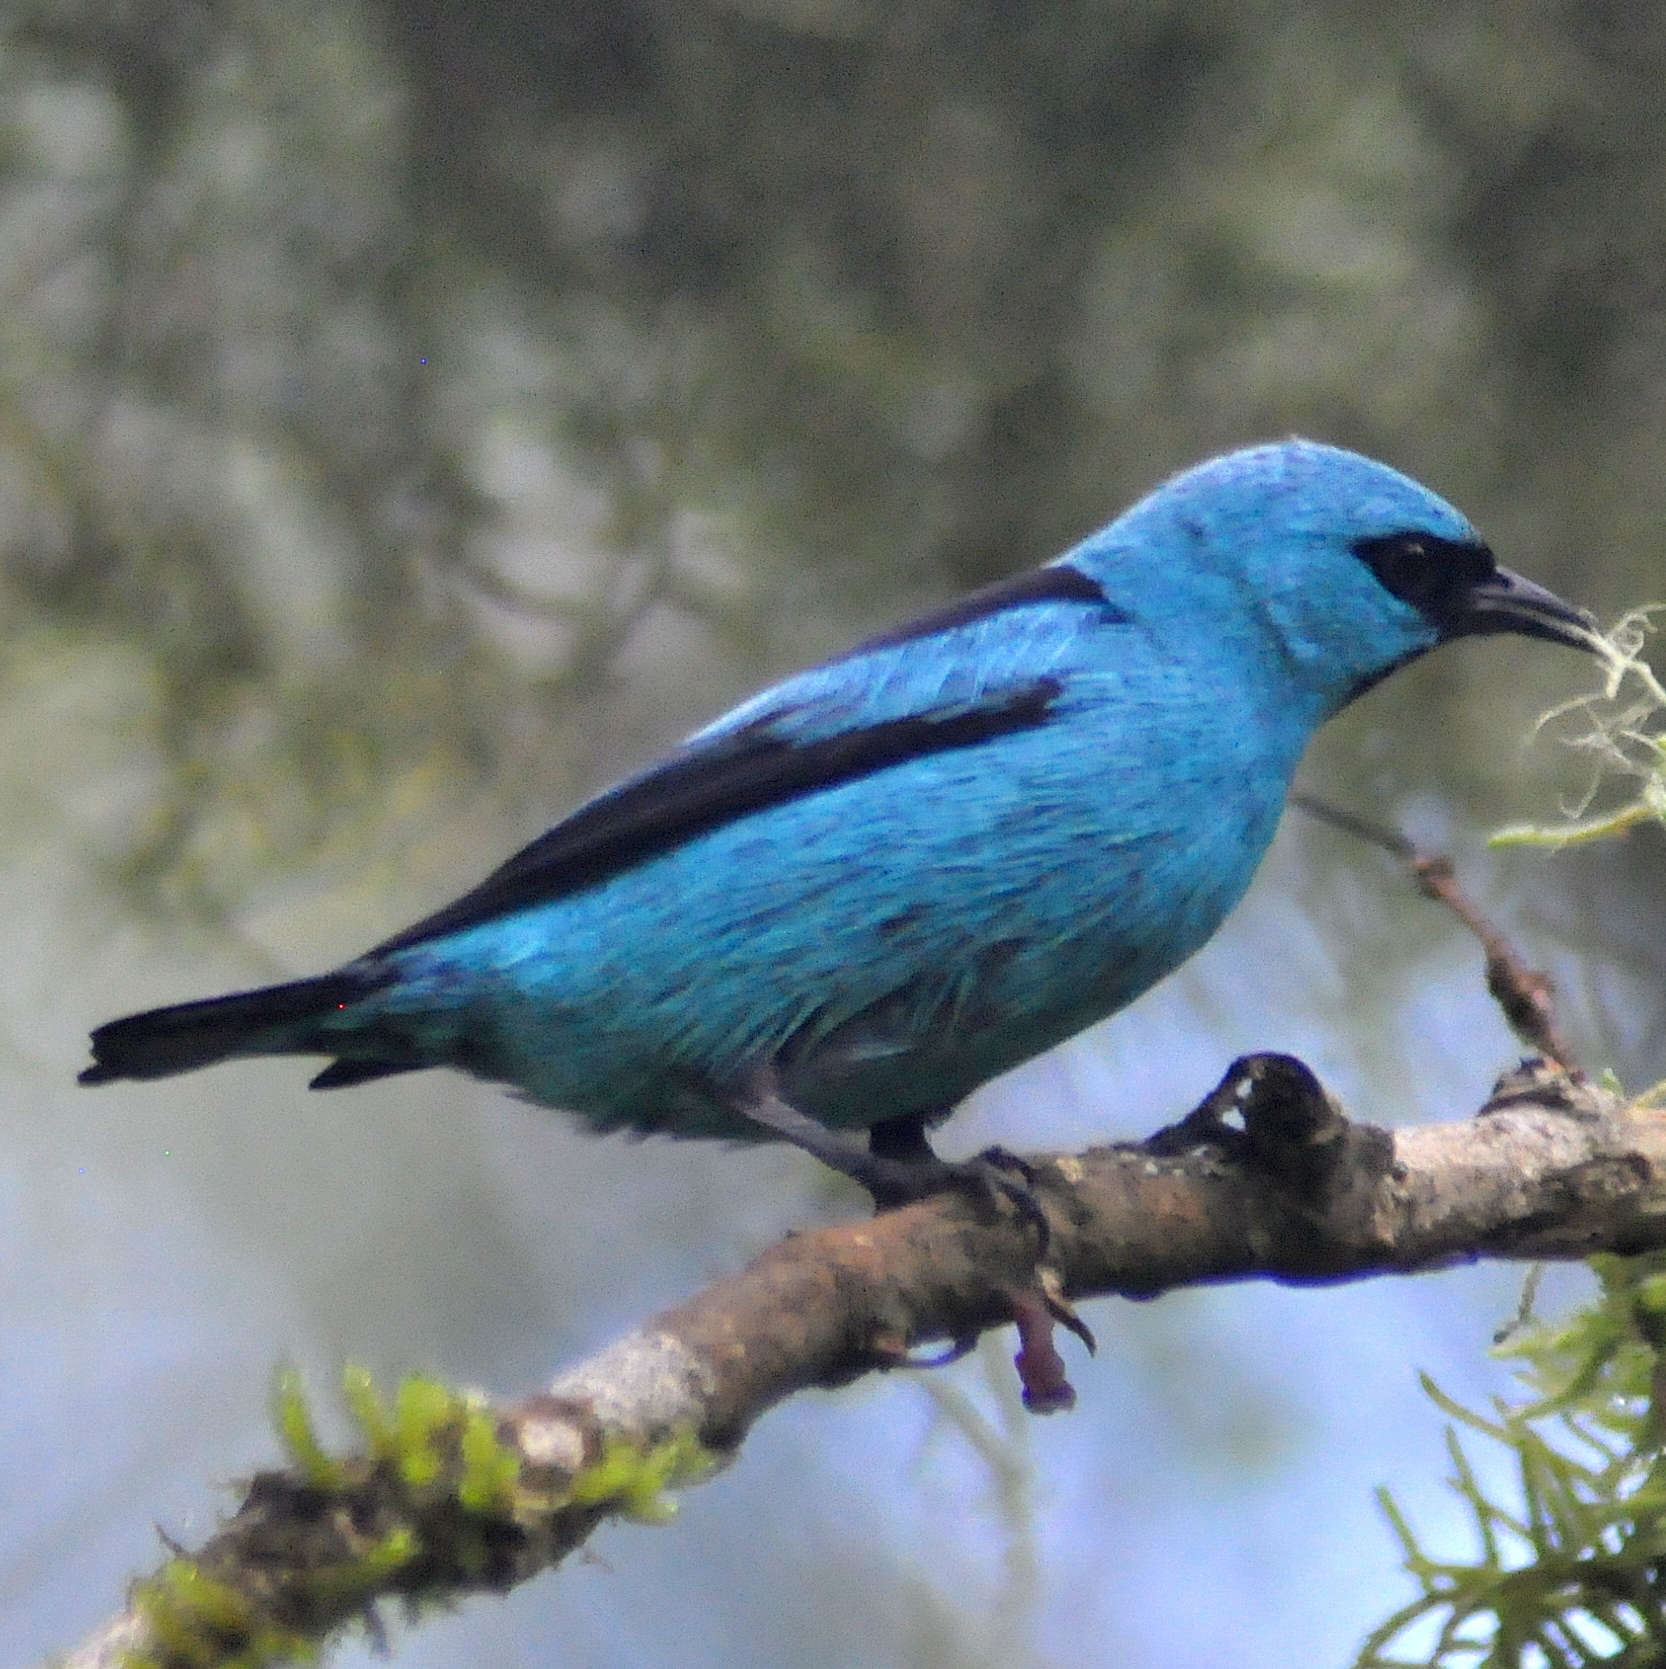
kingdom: Animalia
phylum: Chordata
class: Aves
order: Passeriformes
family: Thraupidae
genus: Dacnis
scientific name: Dacnis nigripes
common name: Black-legged dacnis
